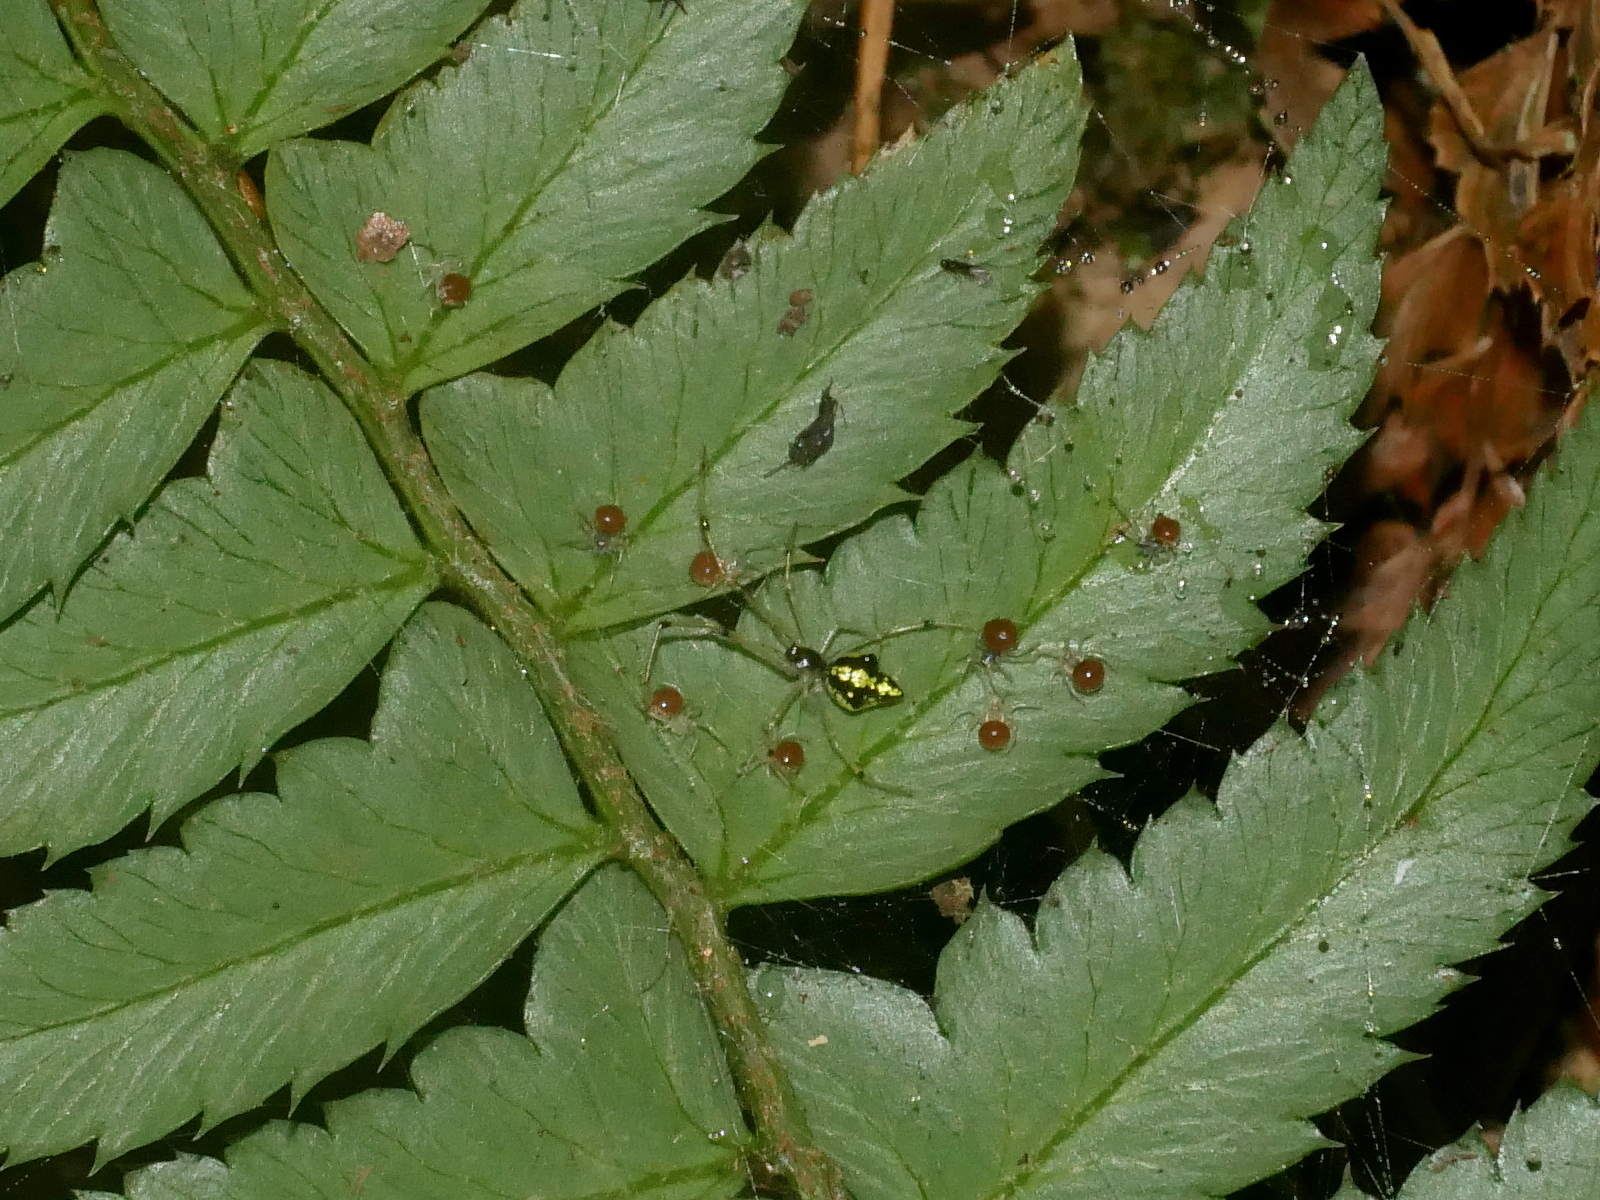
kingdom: Animalia
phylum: Arthropoda
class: Arachnida
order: Araneae
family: Theridiidae
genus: Chrysso
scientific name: Chrysso scintillans
